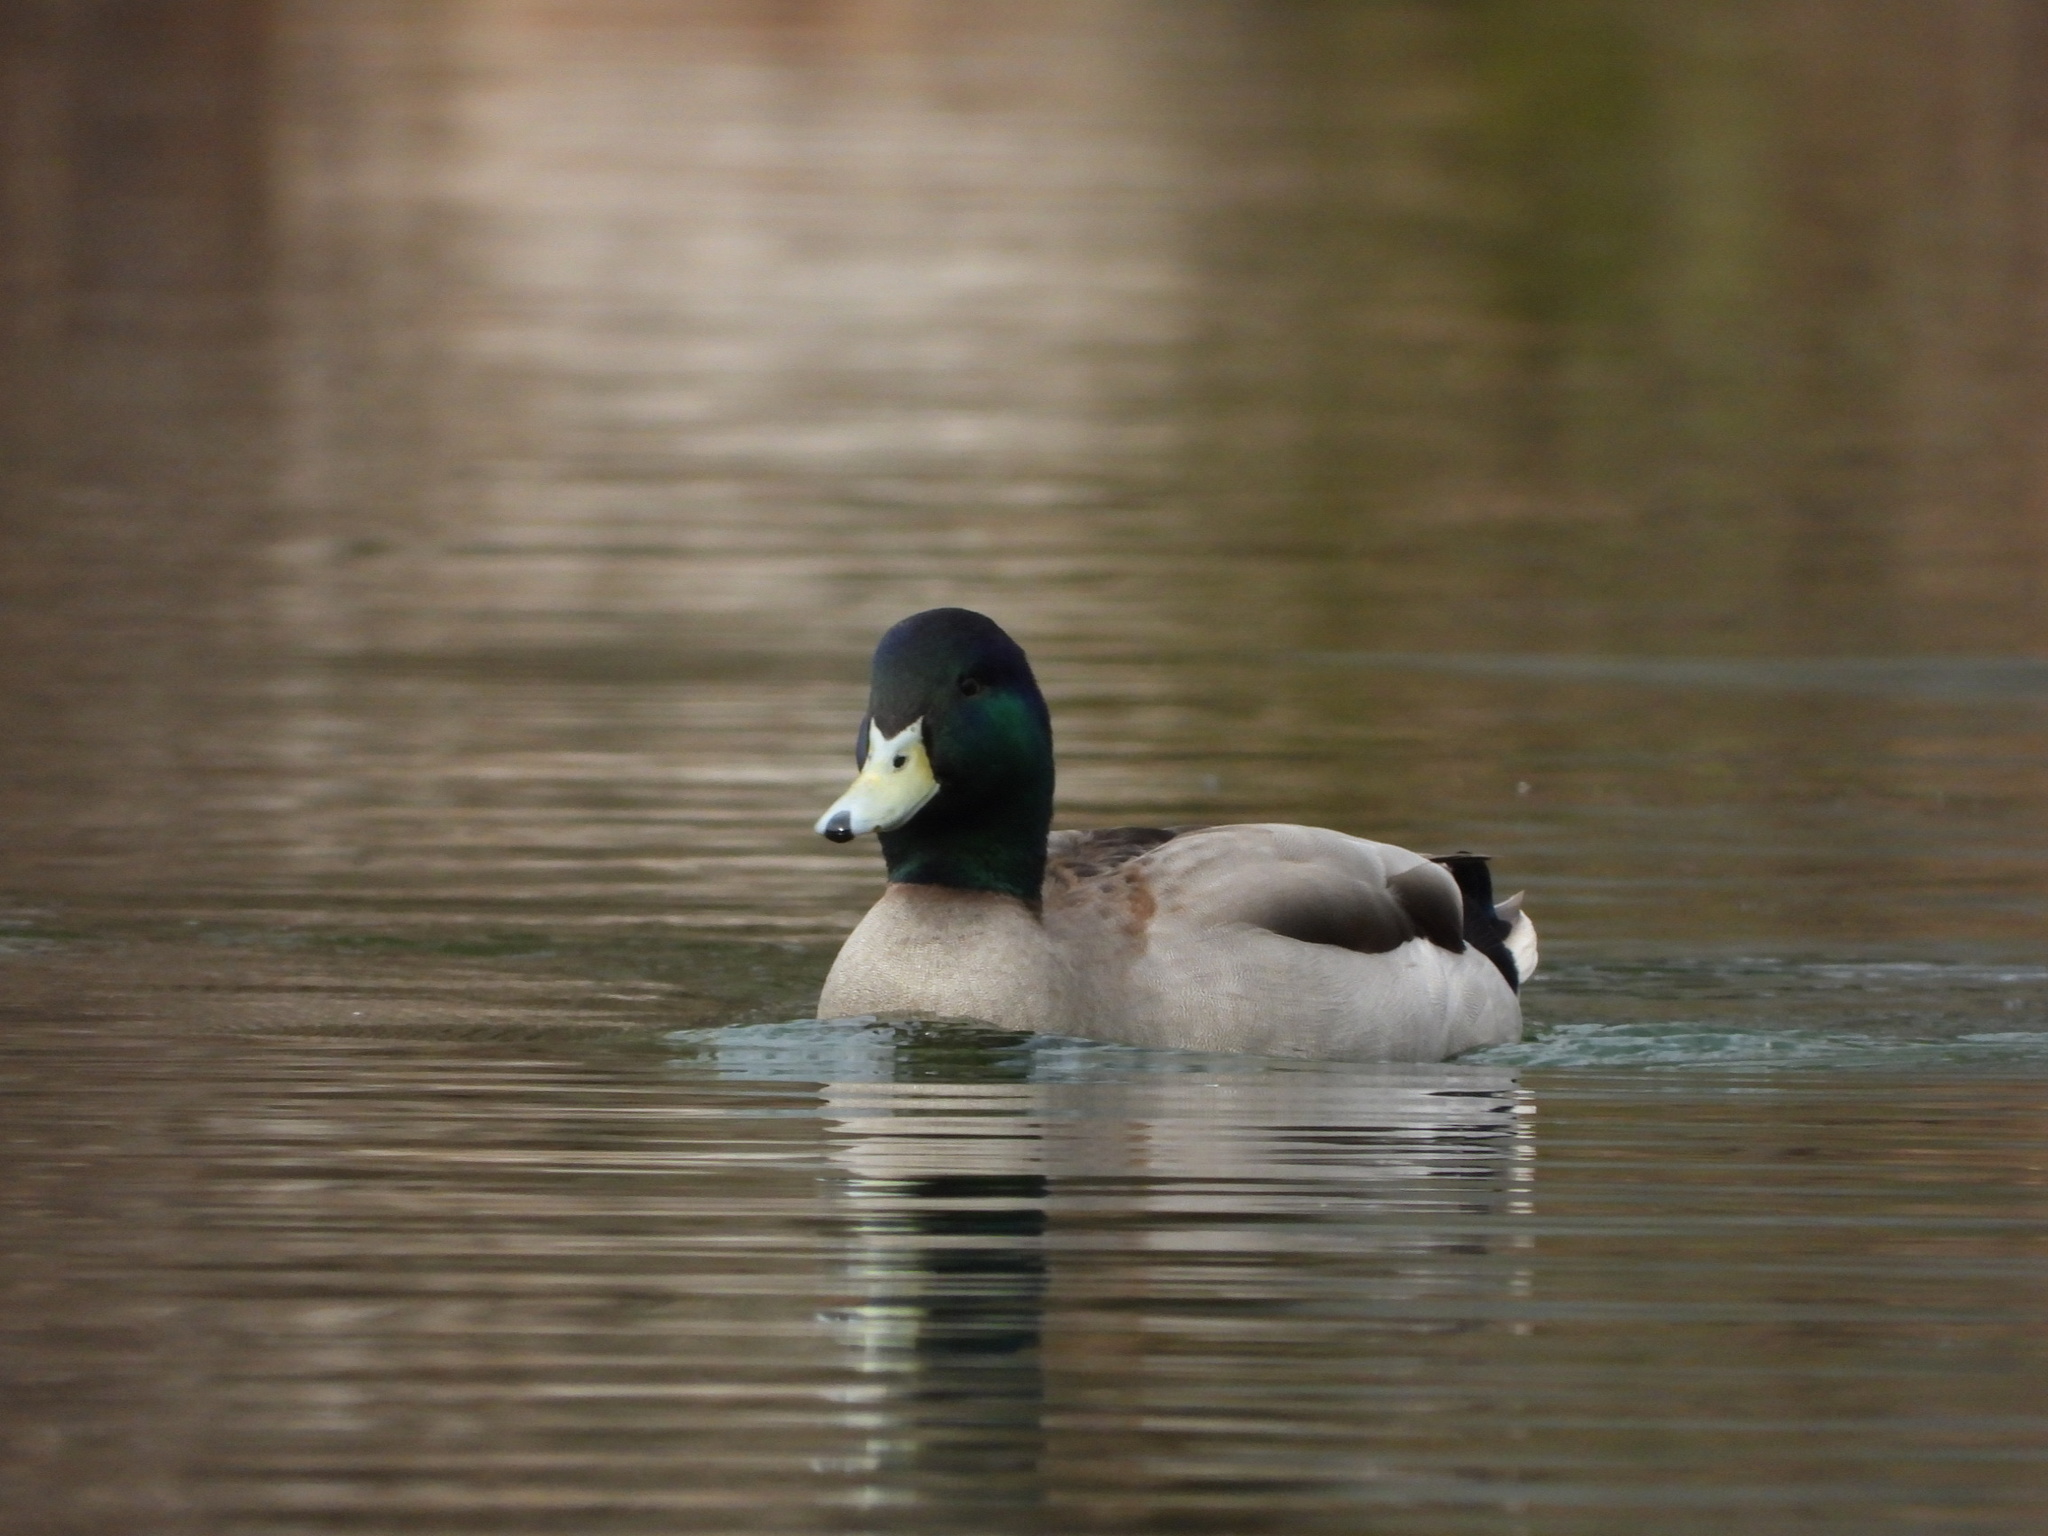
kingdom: Animalia
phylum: Chordata
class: Aves
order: Anseriformes
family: Anatidae
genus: Anas
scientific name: Anas platyrhynchos
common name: Mallard
